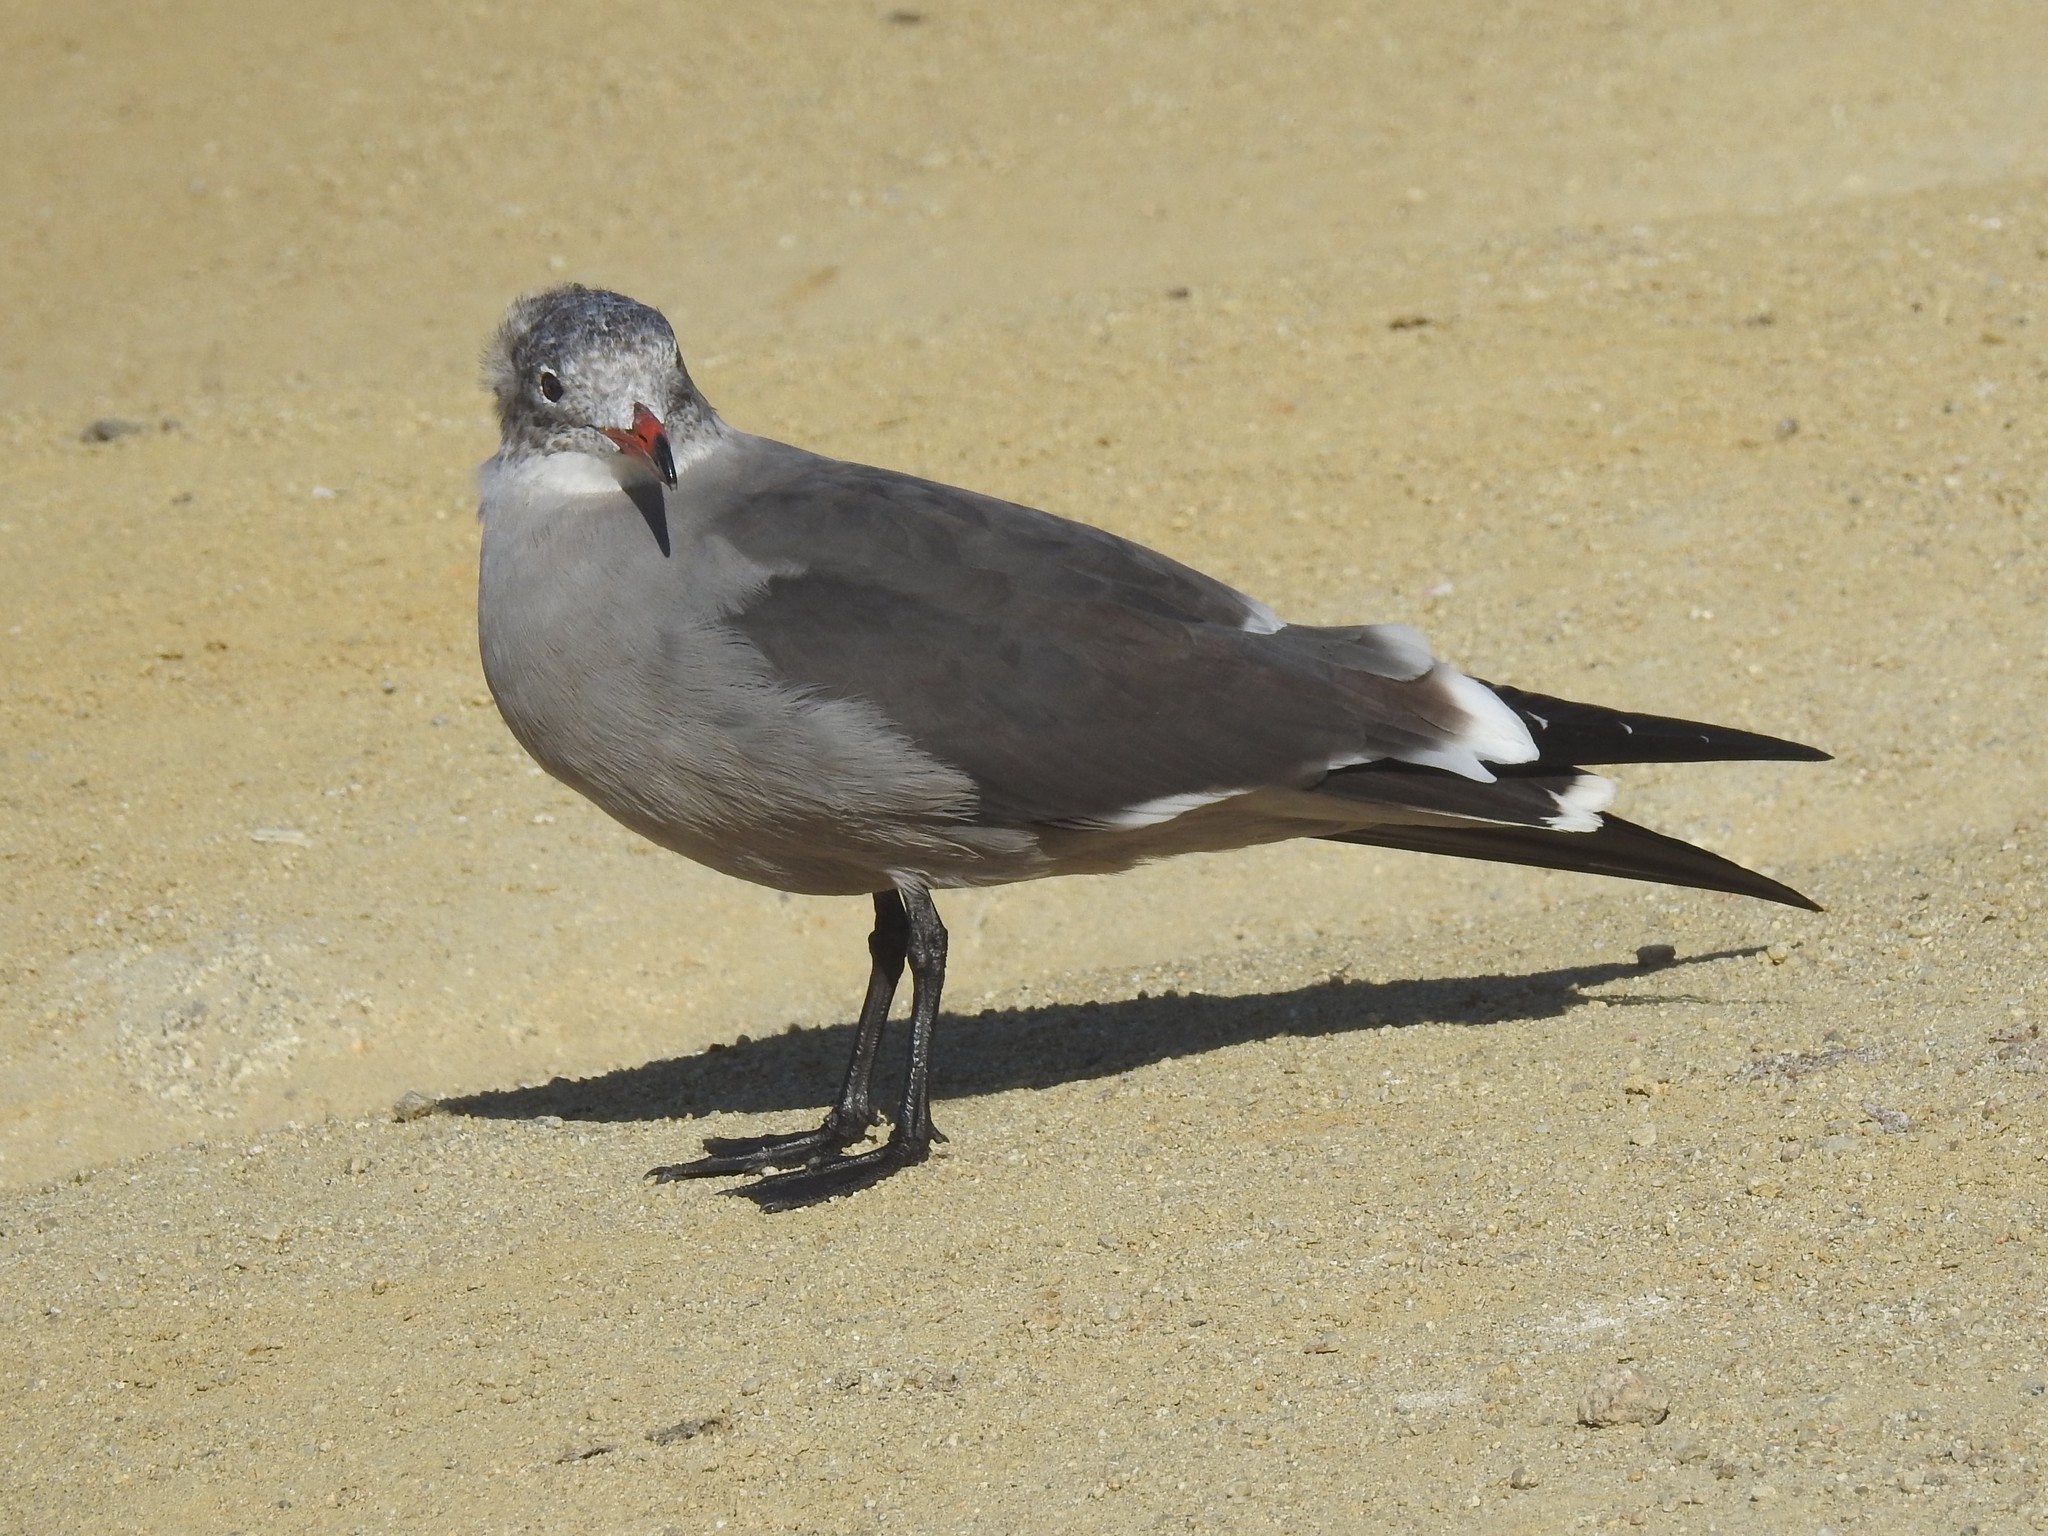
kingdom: Animalia
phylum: Chordata
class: Aves
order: Charadriiformes
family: Laridae
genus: Larus
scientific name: Larus heermanni
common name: Heermann's gull
